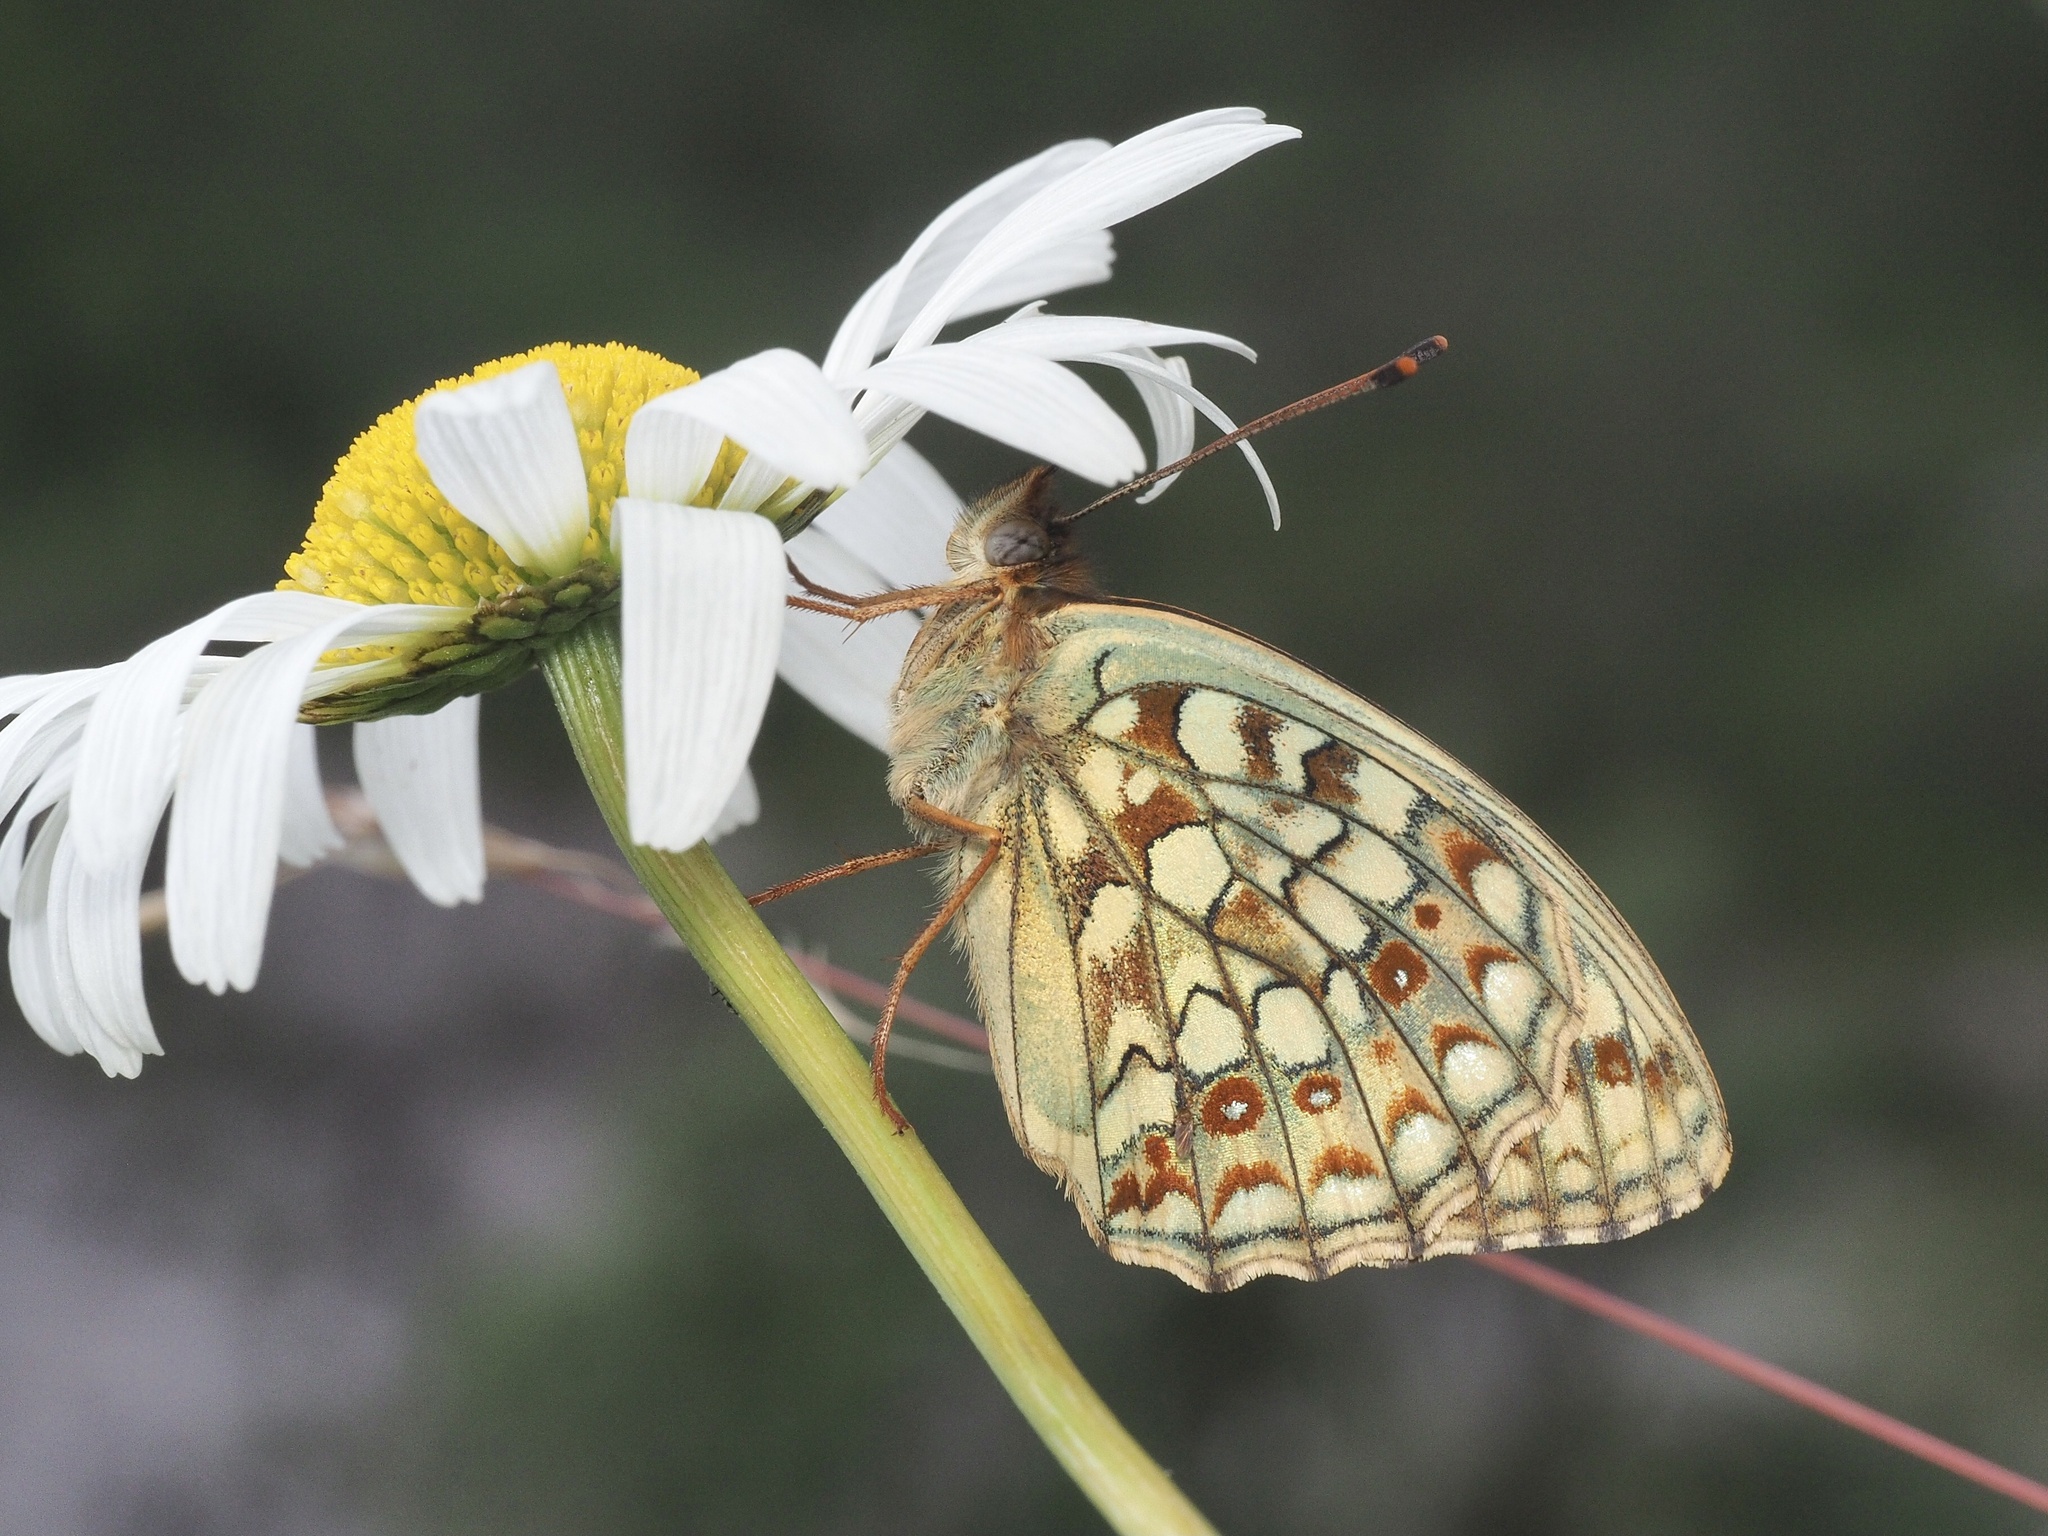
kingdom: Animalia
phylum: Arthropoda
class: Insecta
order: Lepidoptera
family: Nymphalidae
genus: Fabriciana
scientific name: Fabriciana niobe
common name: Niobe fritillary
